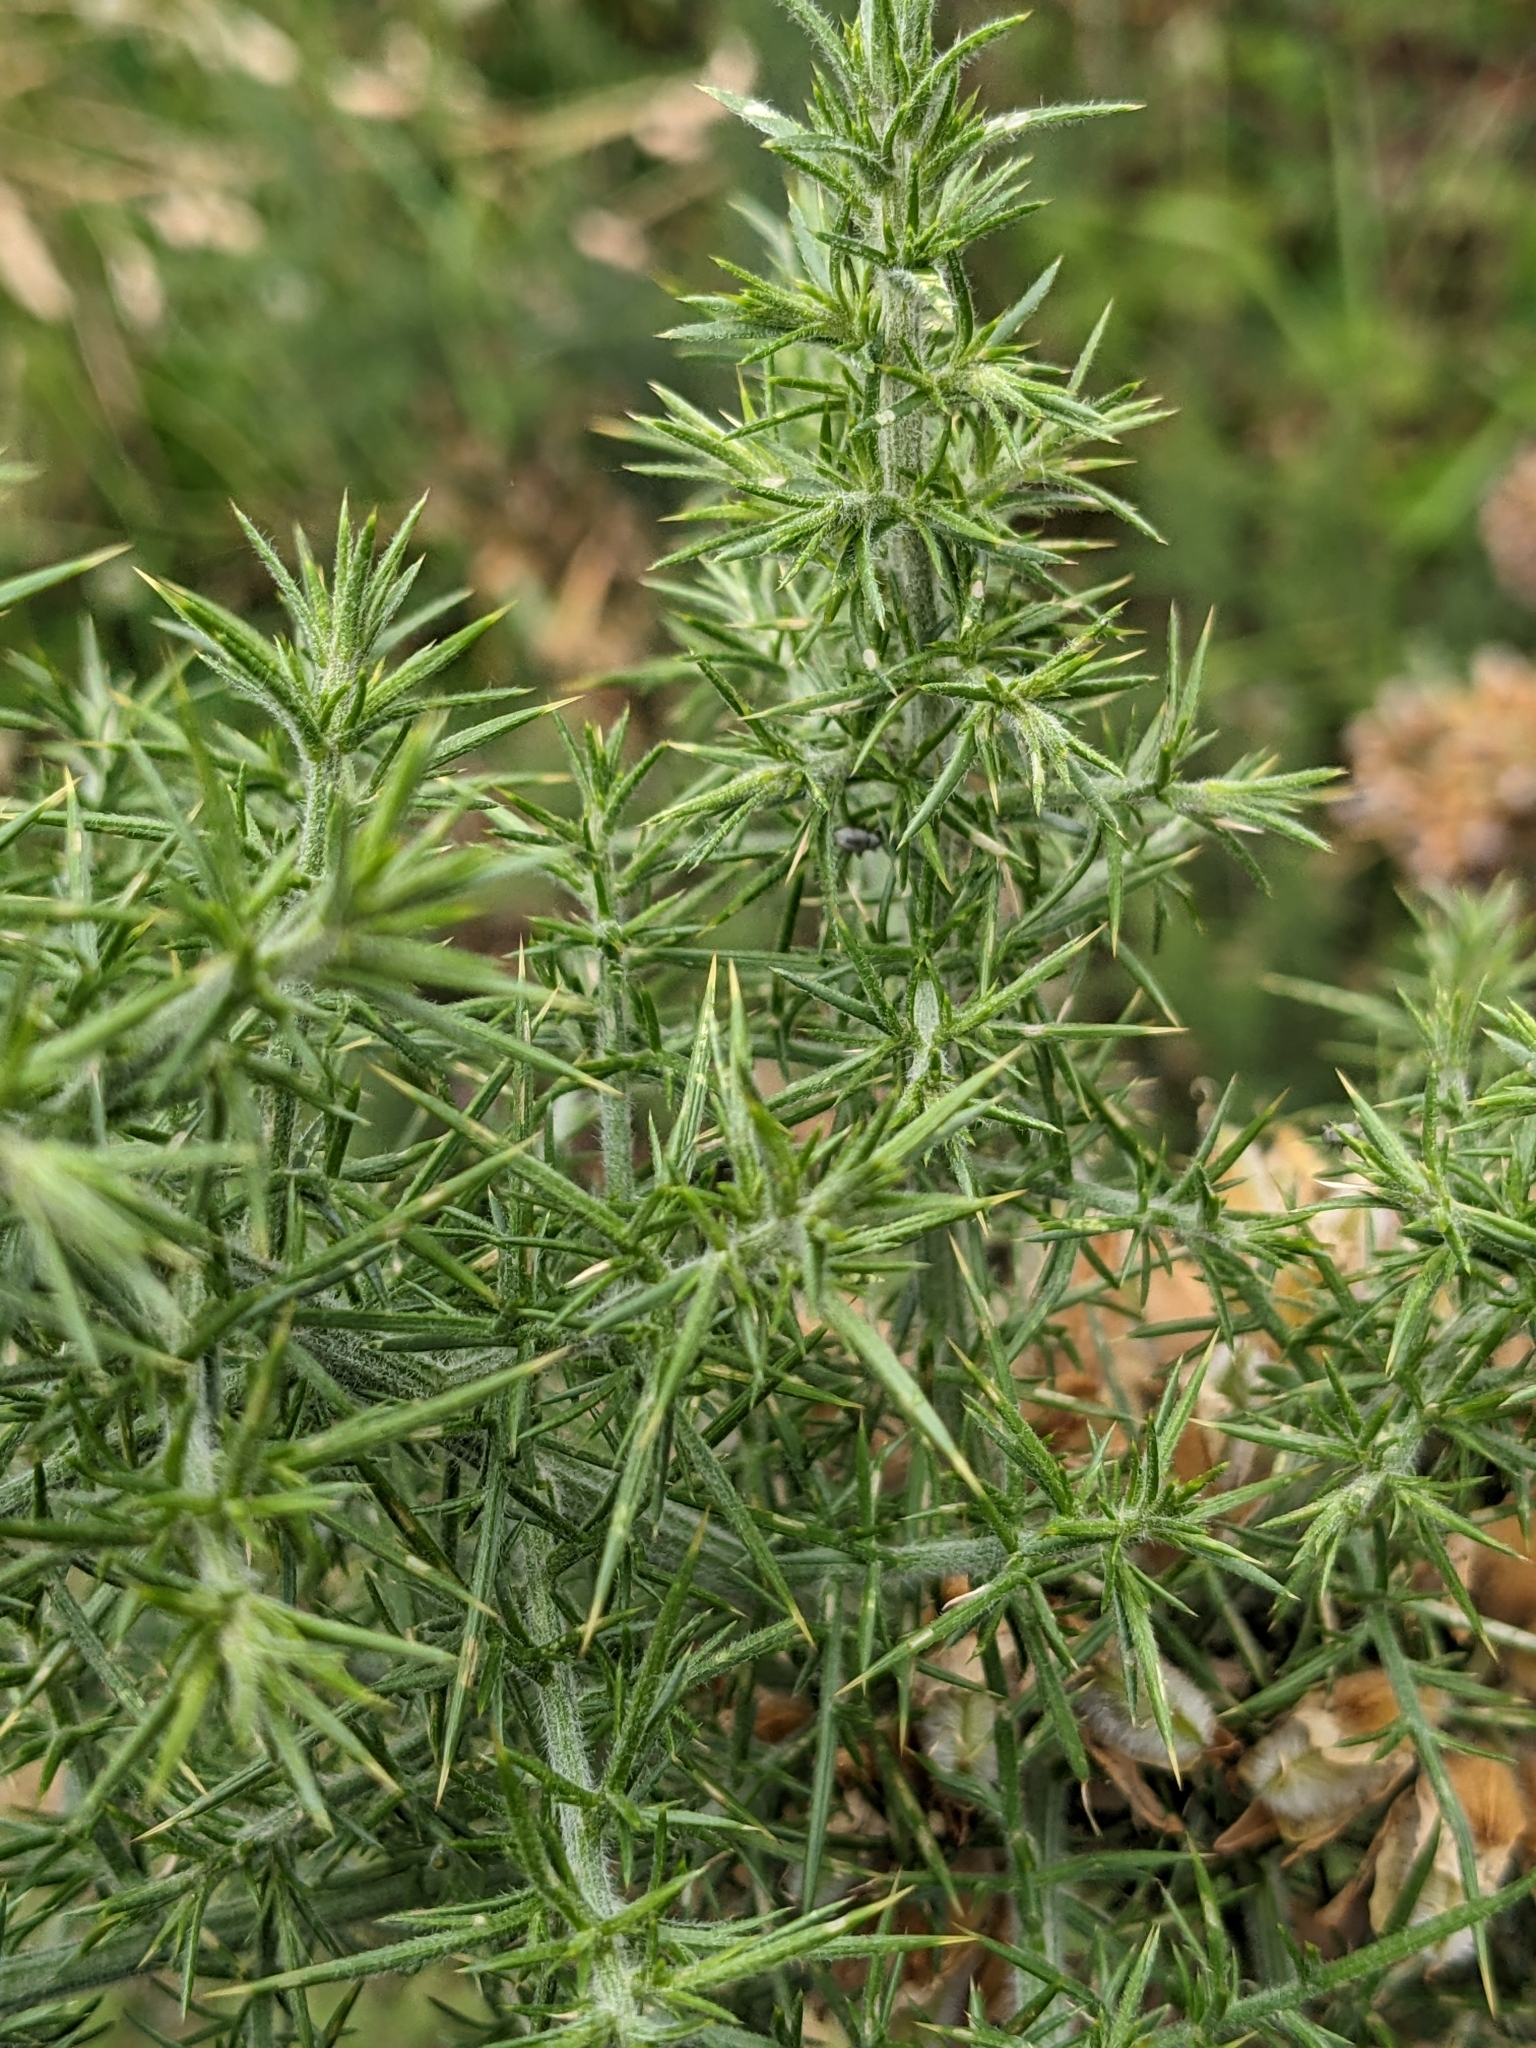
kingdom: Plantae
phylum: Tracheophyta
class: Magnoliopsida
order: Fabales
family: Fabaceae
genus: Ulex
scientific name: Ulex europaeus
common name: Common gorse
